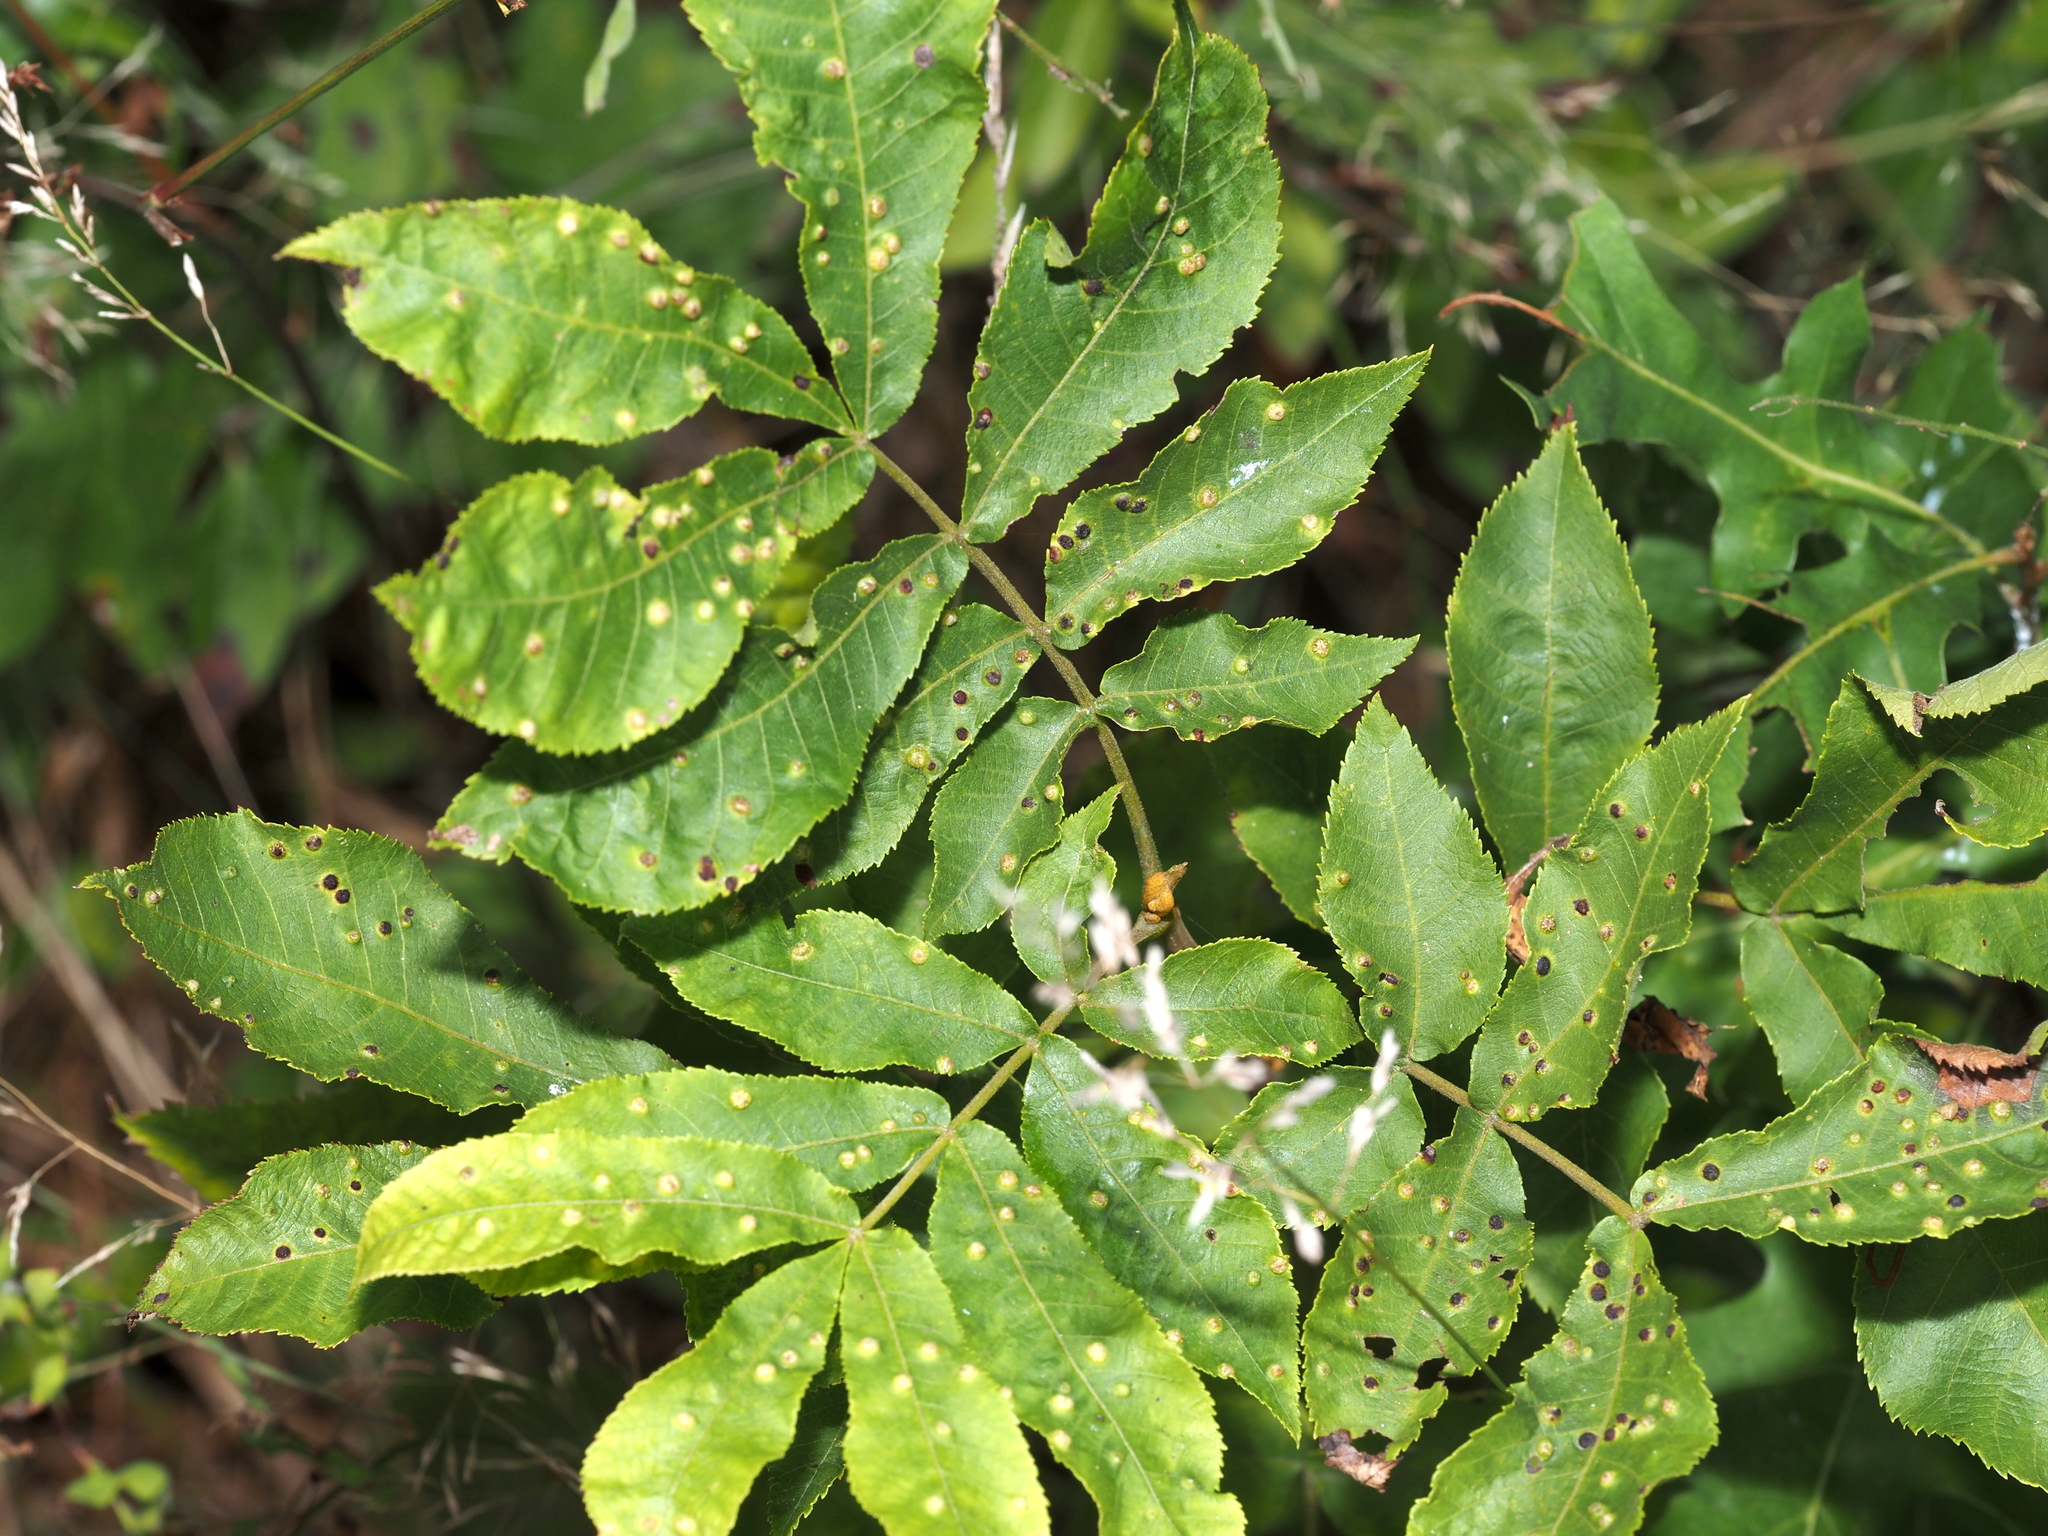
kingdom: Animalia
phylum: Arthropoda
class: Insecta
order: Hemiptera
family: Phylloxeridae
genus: Phylloxera
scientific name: Phylloxera caryae-semen
